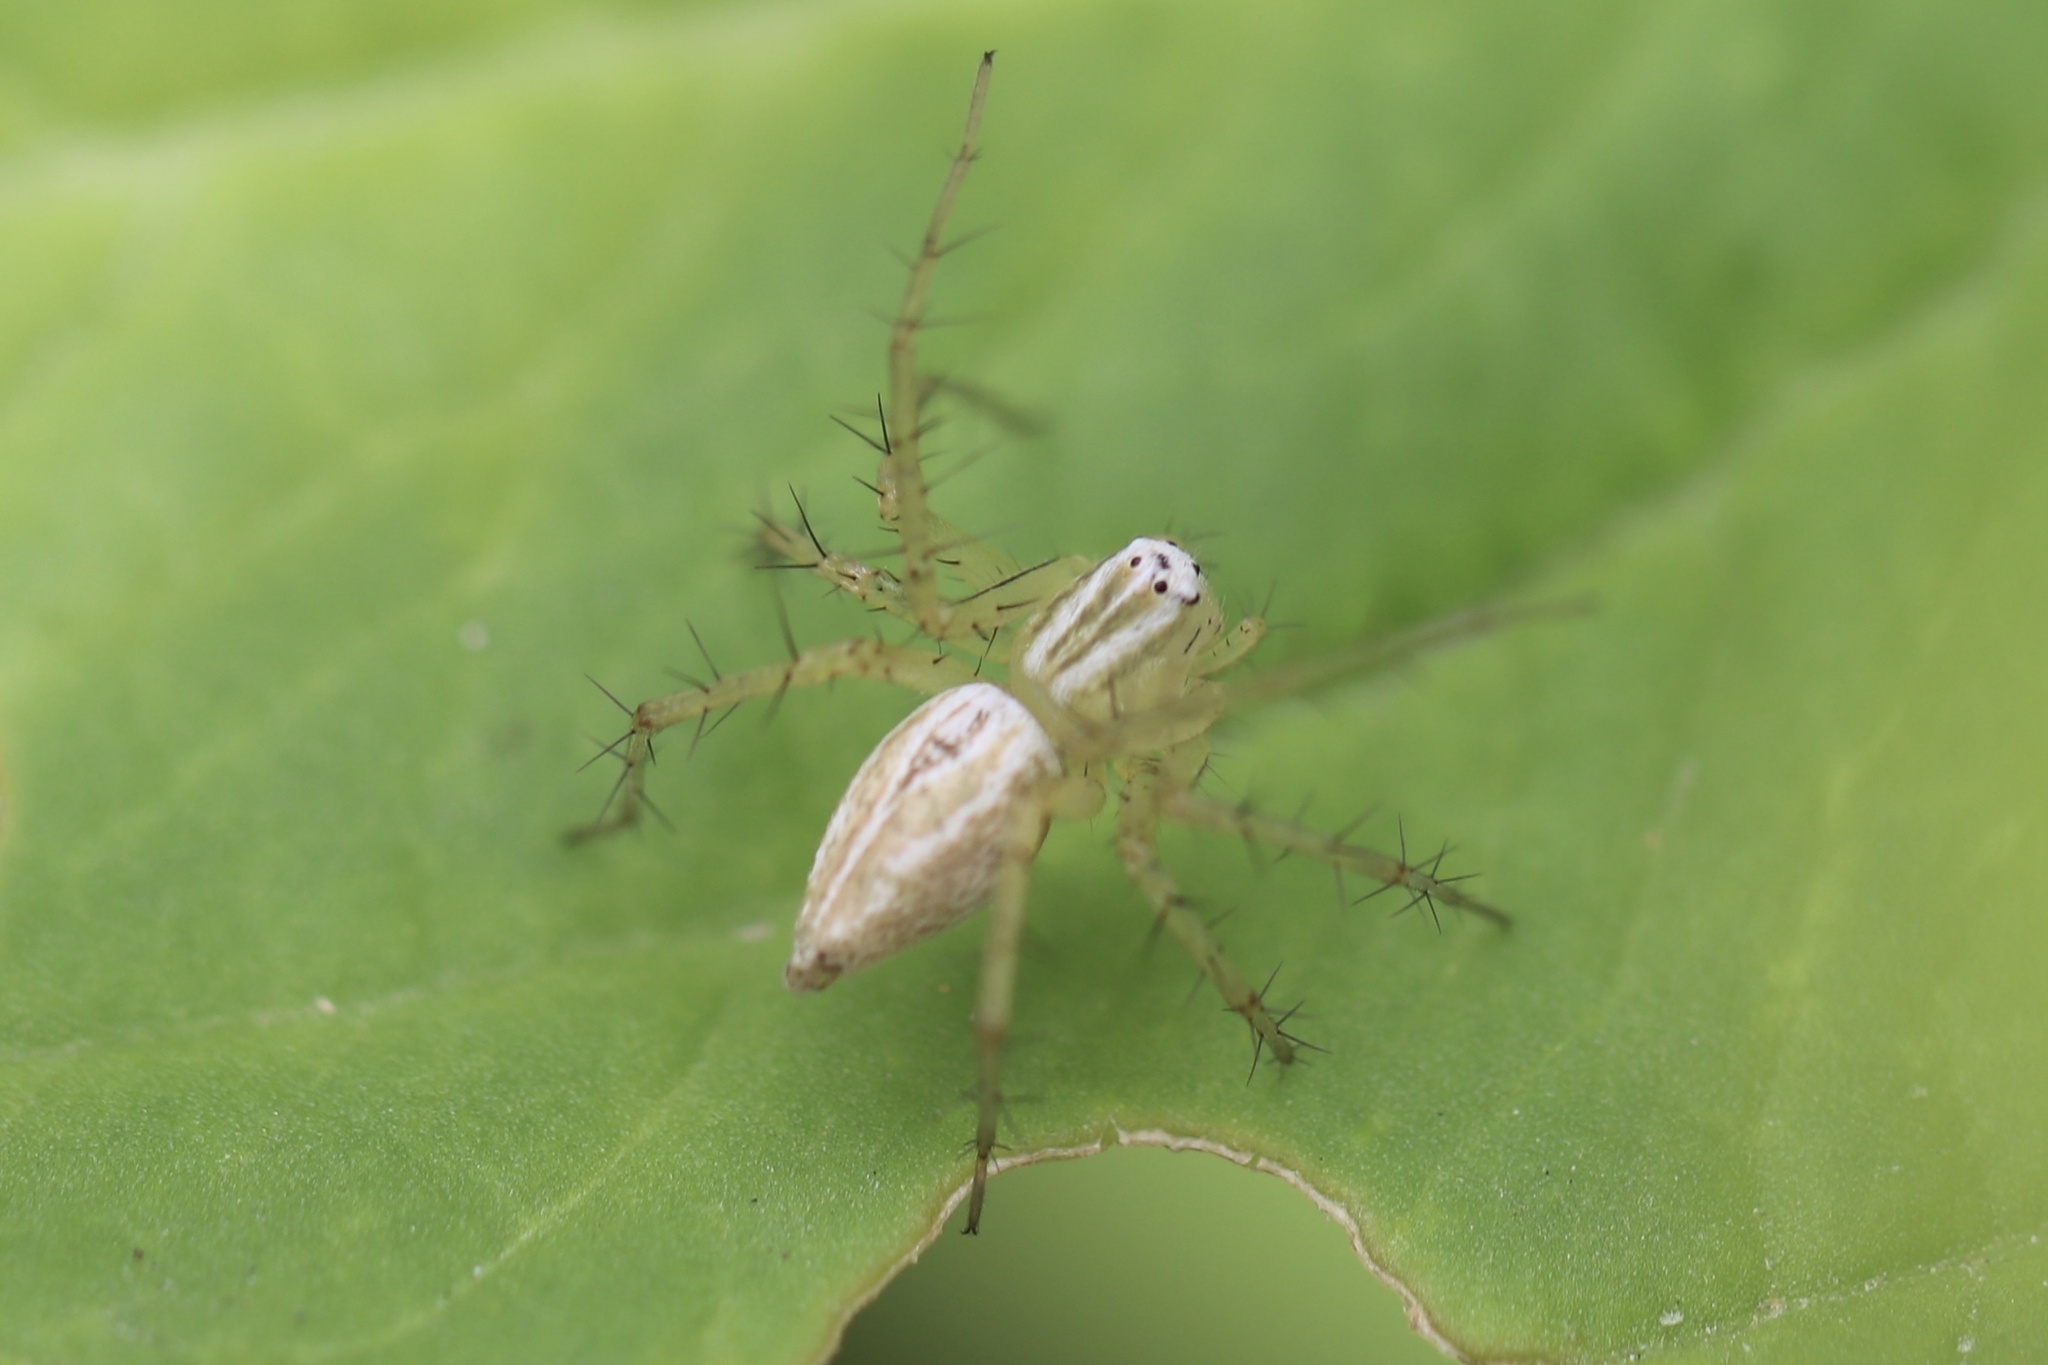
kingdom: Animalia
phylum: Arthropoda
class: Arachnida
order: Araneae
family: Oxyopidae
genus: Oxyopes
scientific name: Oxyopes salticus
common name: Lynx spiders
